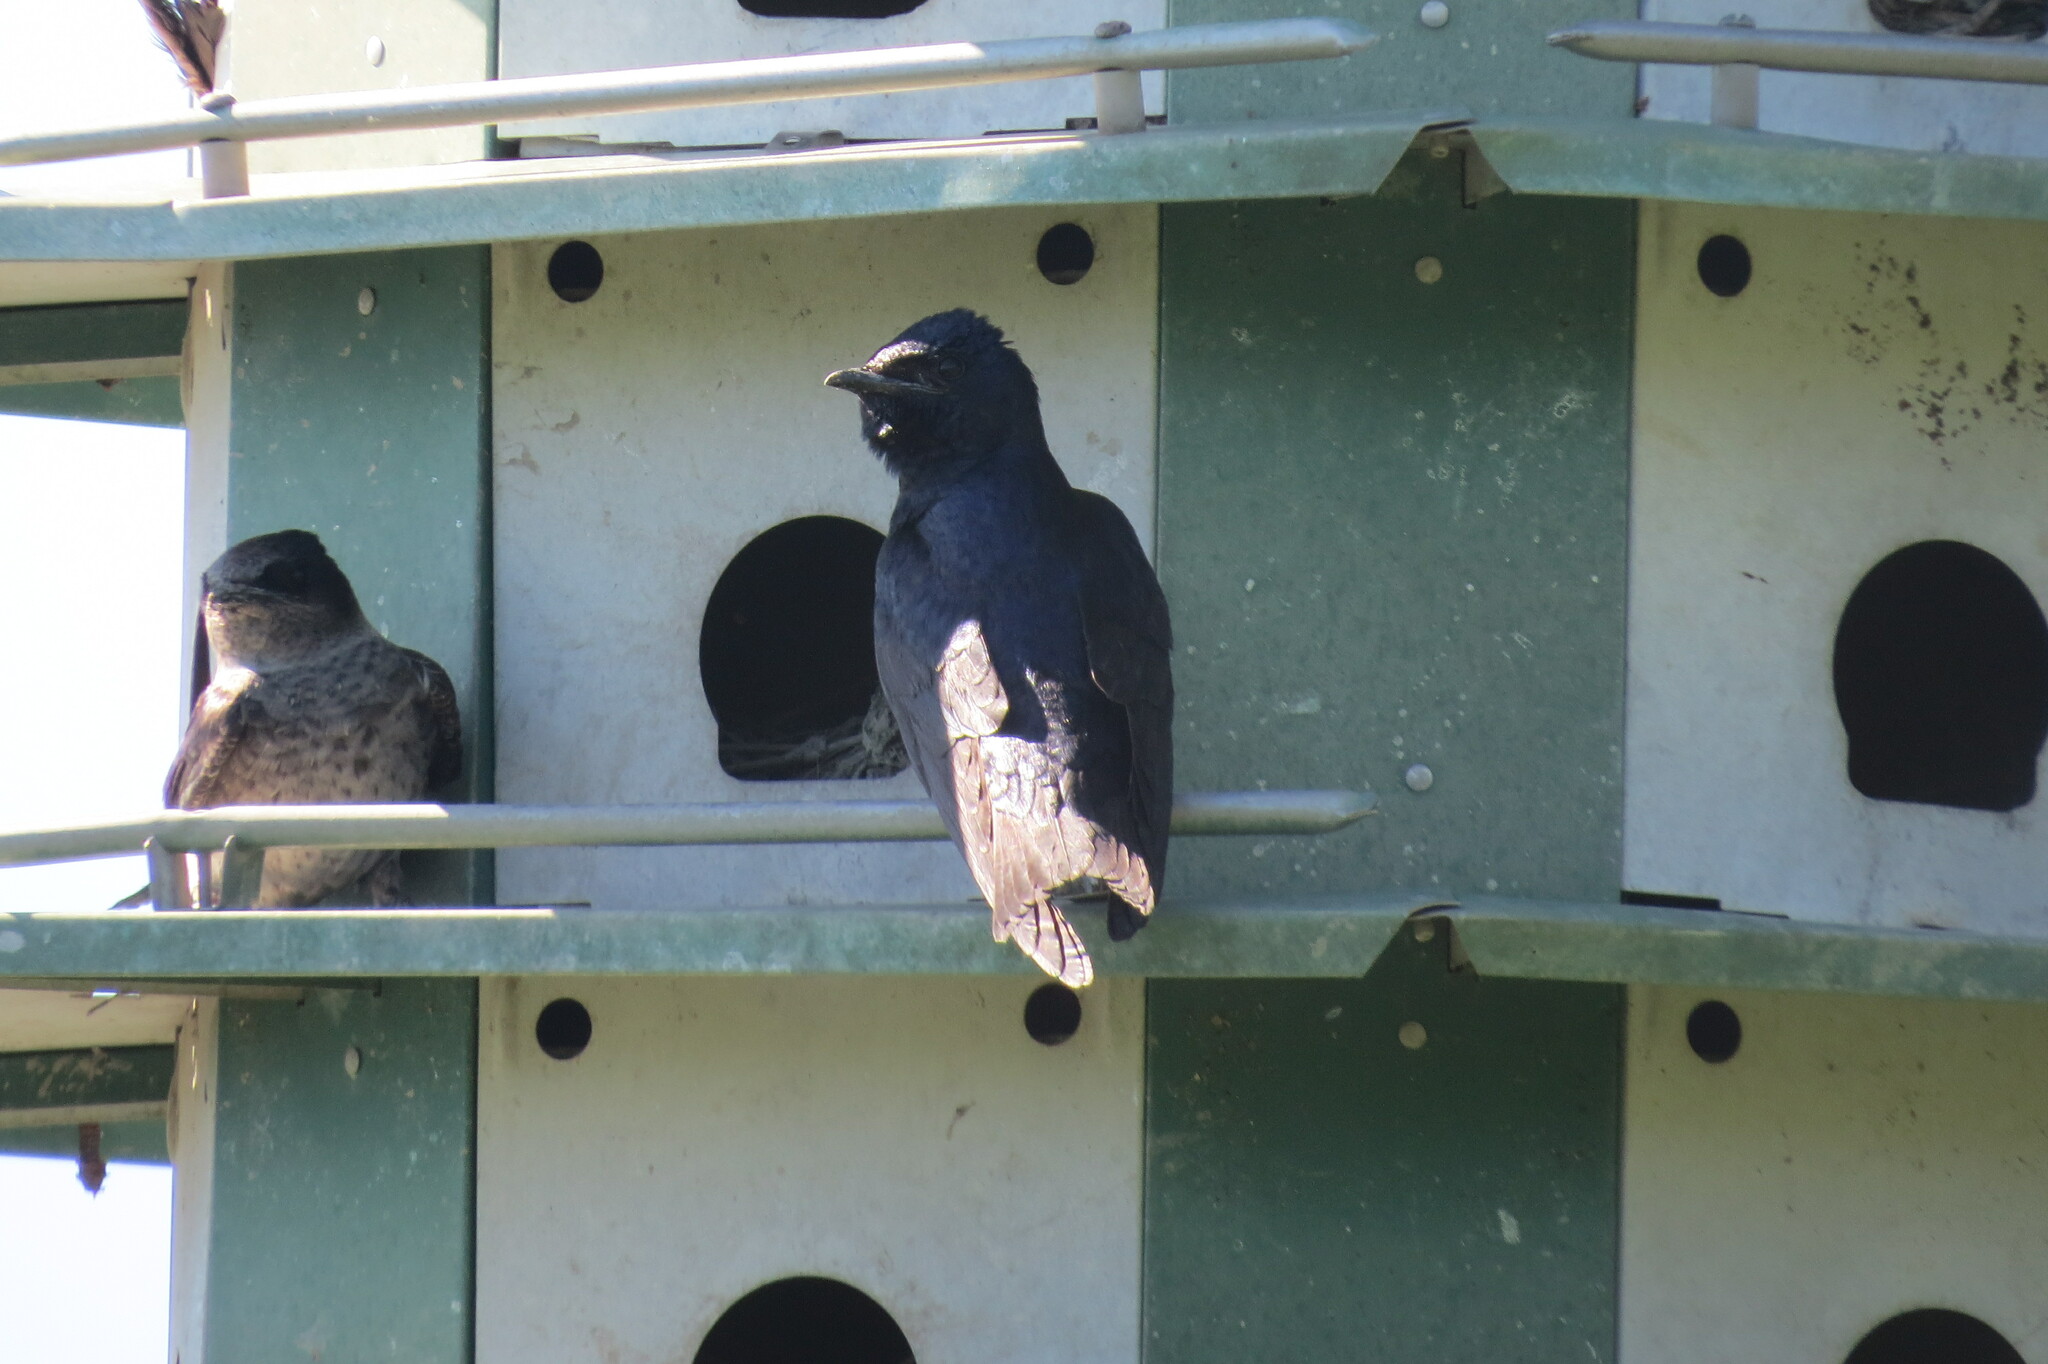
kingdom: Animalia
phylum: Chordata
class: Aves
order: Passeriformes
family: Hirundinidae
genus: Progne
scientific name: Progne subis
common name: Purple martin
